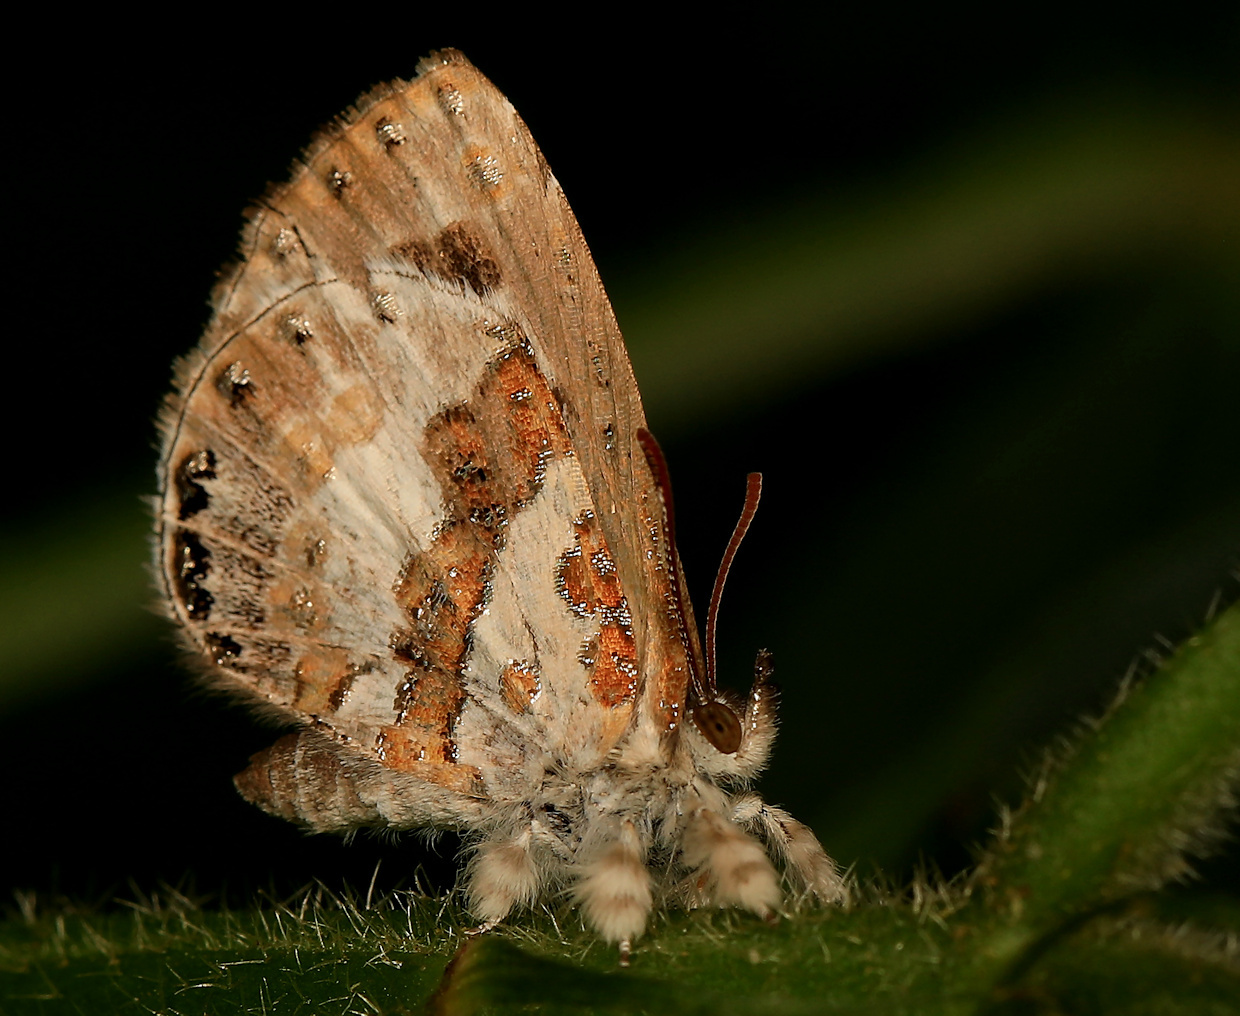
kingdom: Animalia
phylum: Arthropoda
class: Insecta
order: Lepidoptera
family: Lycaenidae
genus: Lachnocnema
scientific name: Lachnocnema bibulus
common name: Common woolly legs
